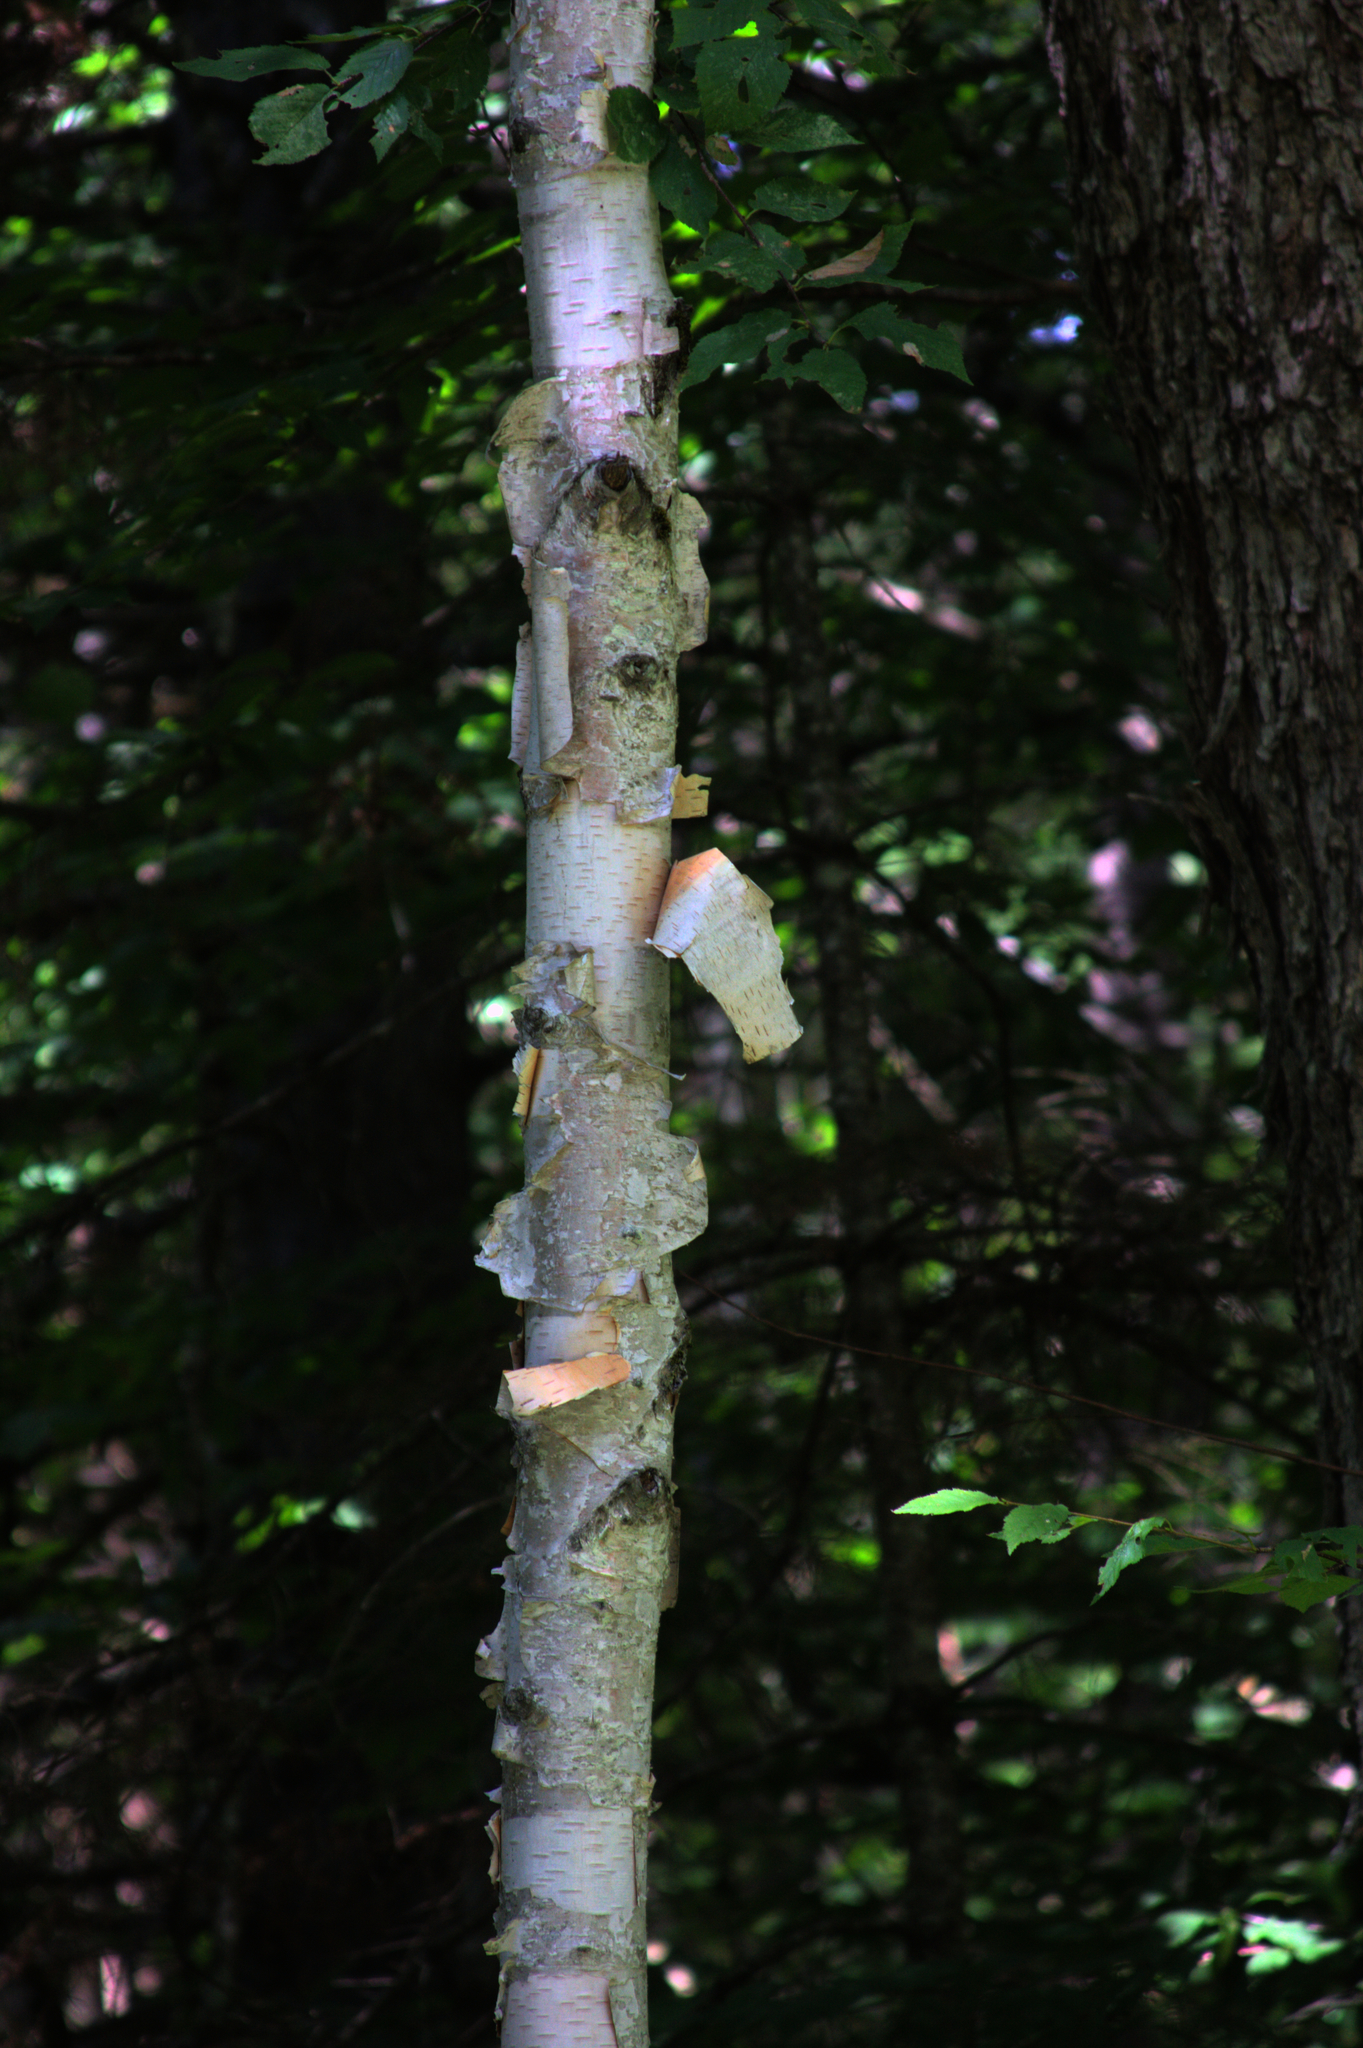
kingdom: Plantae
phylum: Tracheophyta
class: Magnoliopsida
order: Fagales
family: Betulaceae
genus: Betula
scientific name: Betula papyrifera
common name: Paper birch
